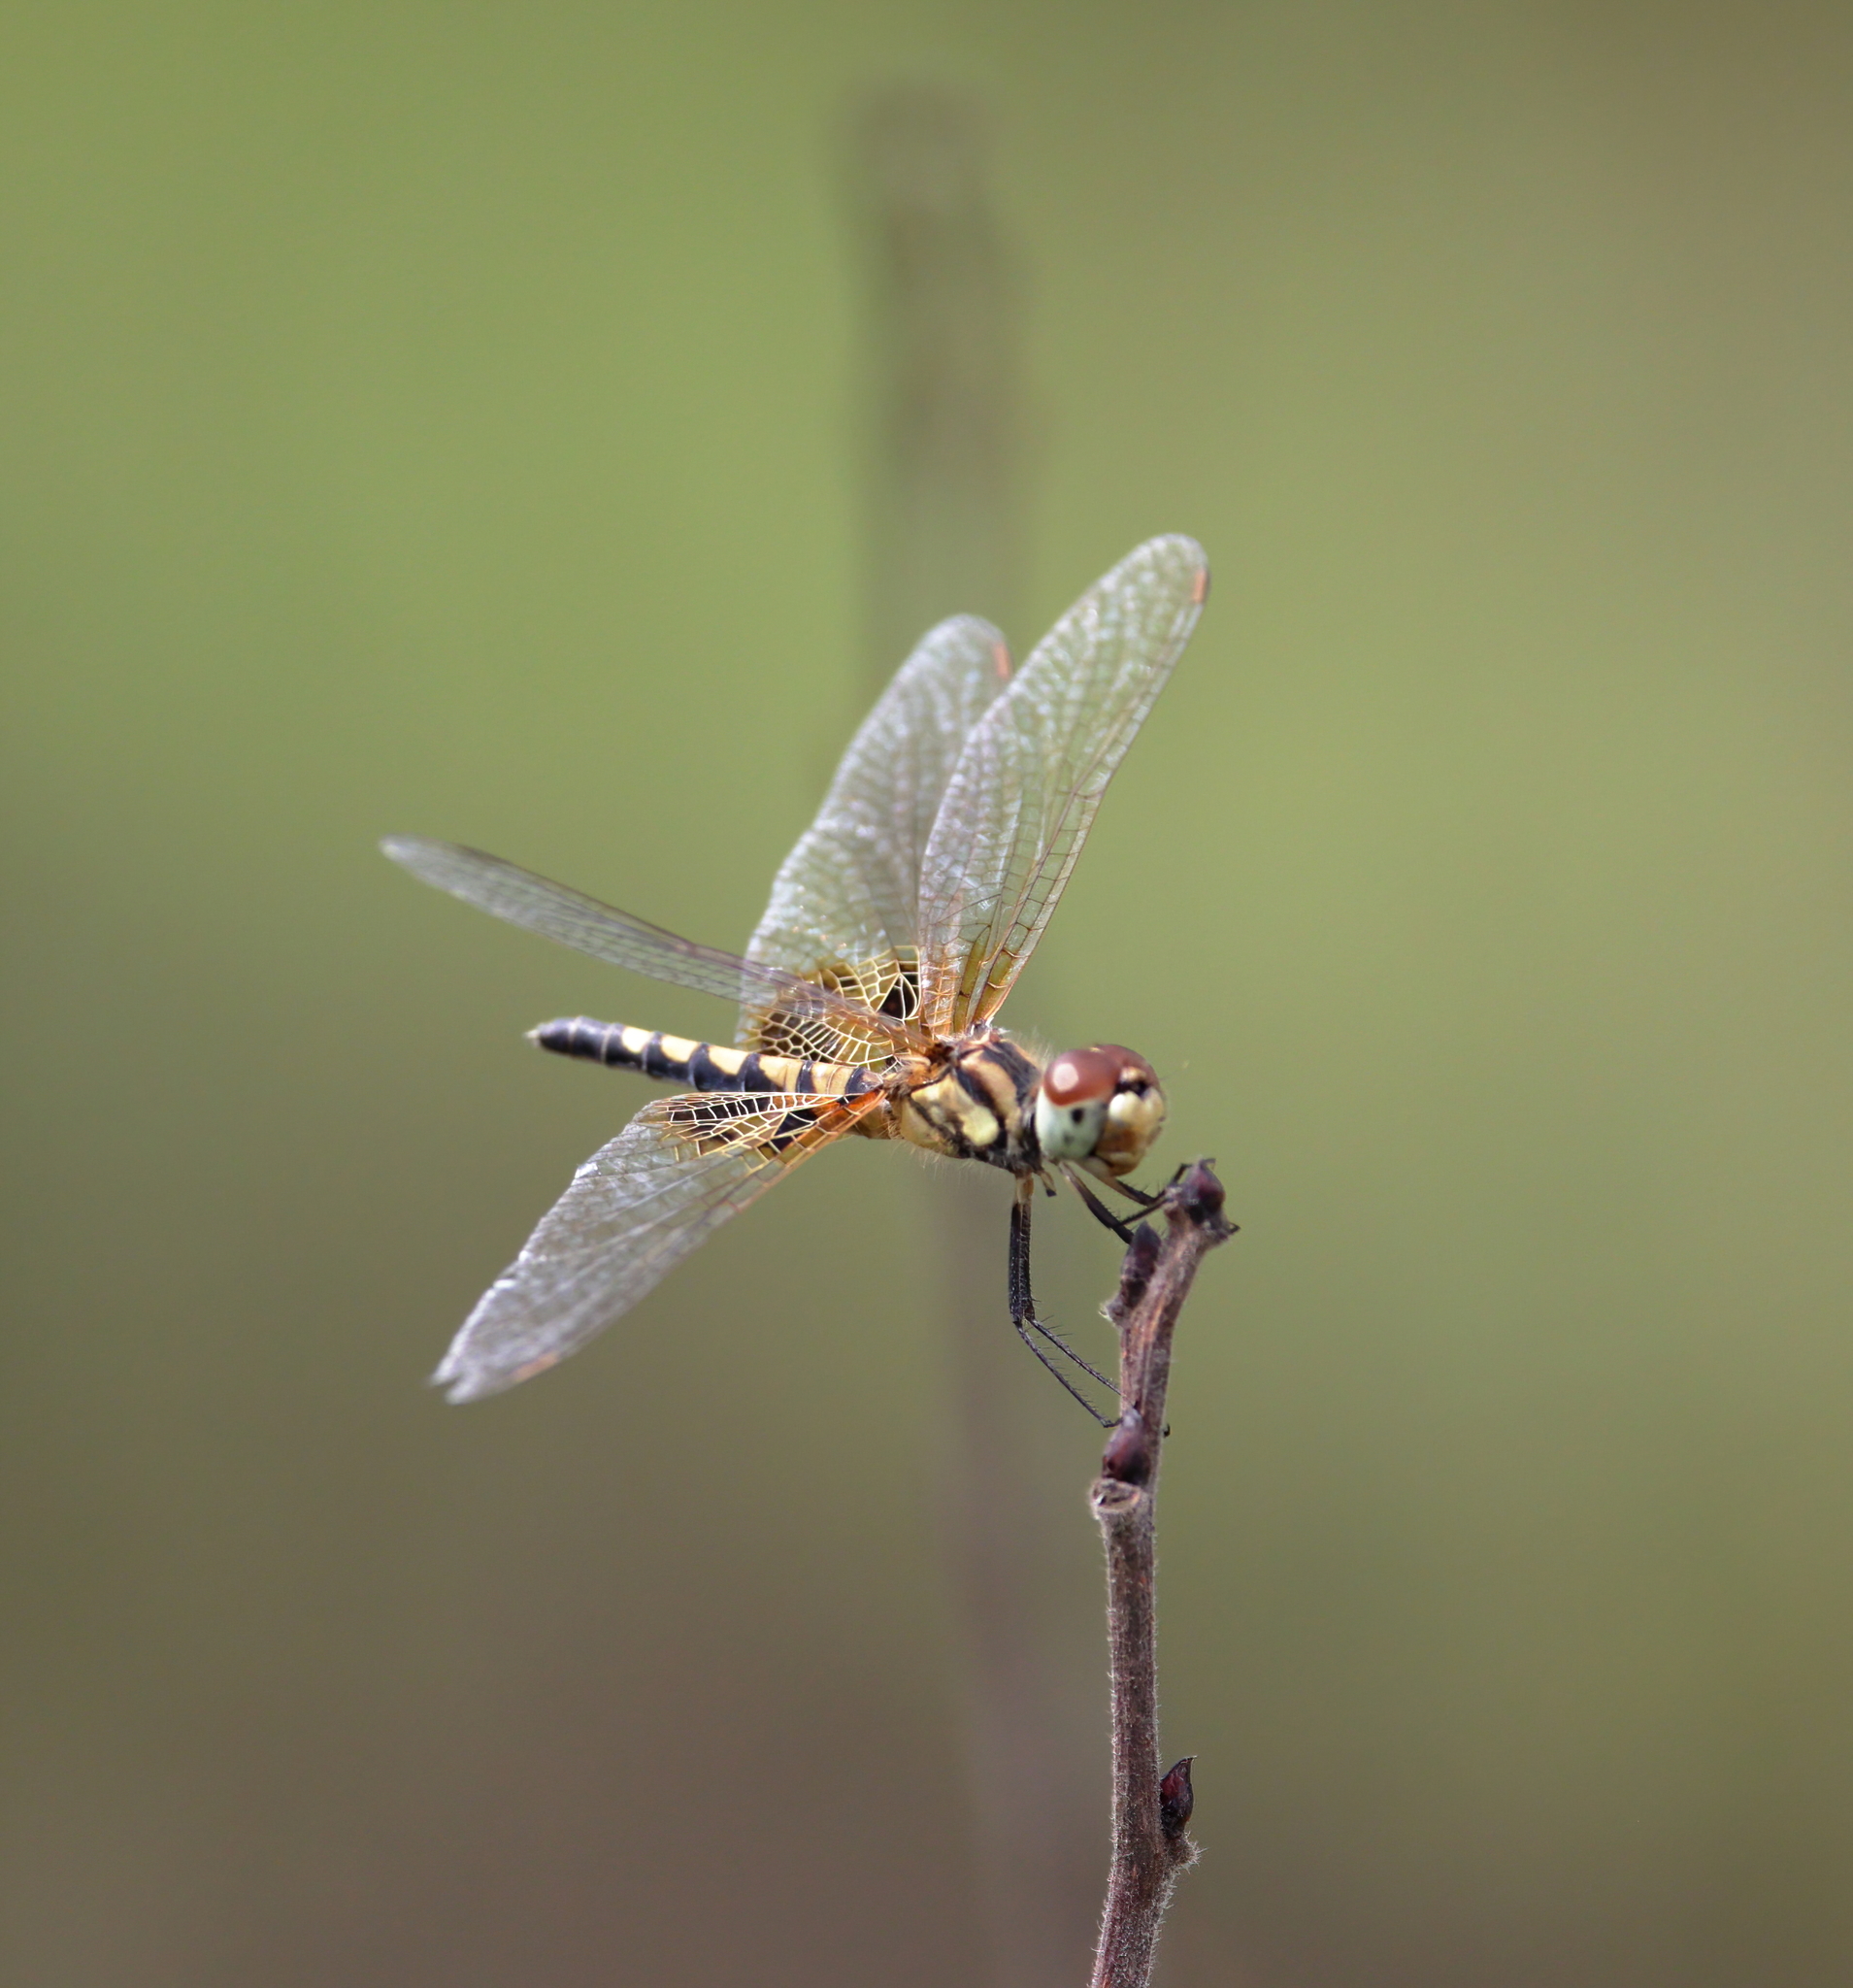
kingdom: Animalia
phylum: Arthropoda
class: Insecta
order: Odonata
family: Libellulidae
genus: Celithemis
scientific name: Celithemis amanda
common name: Amanda's pennant
